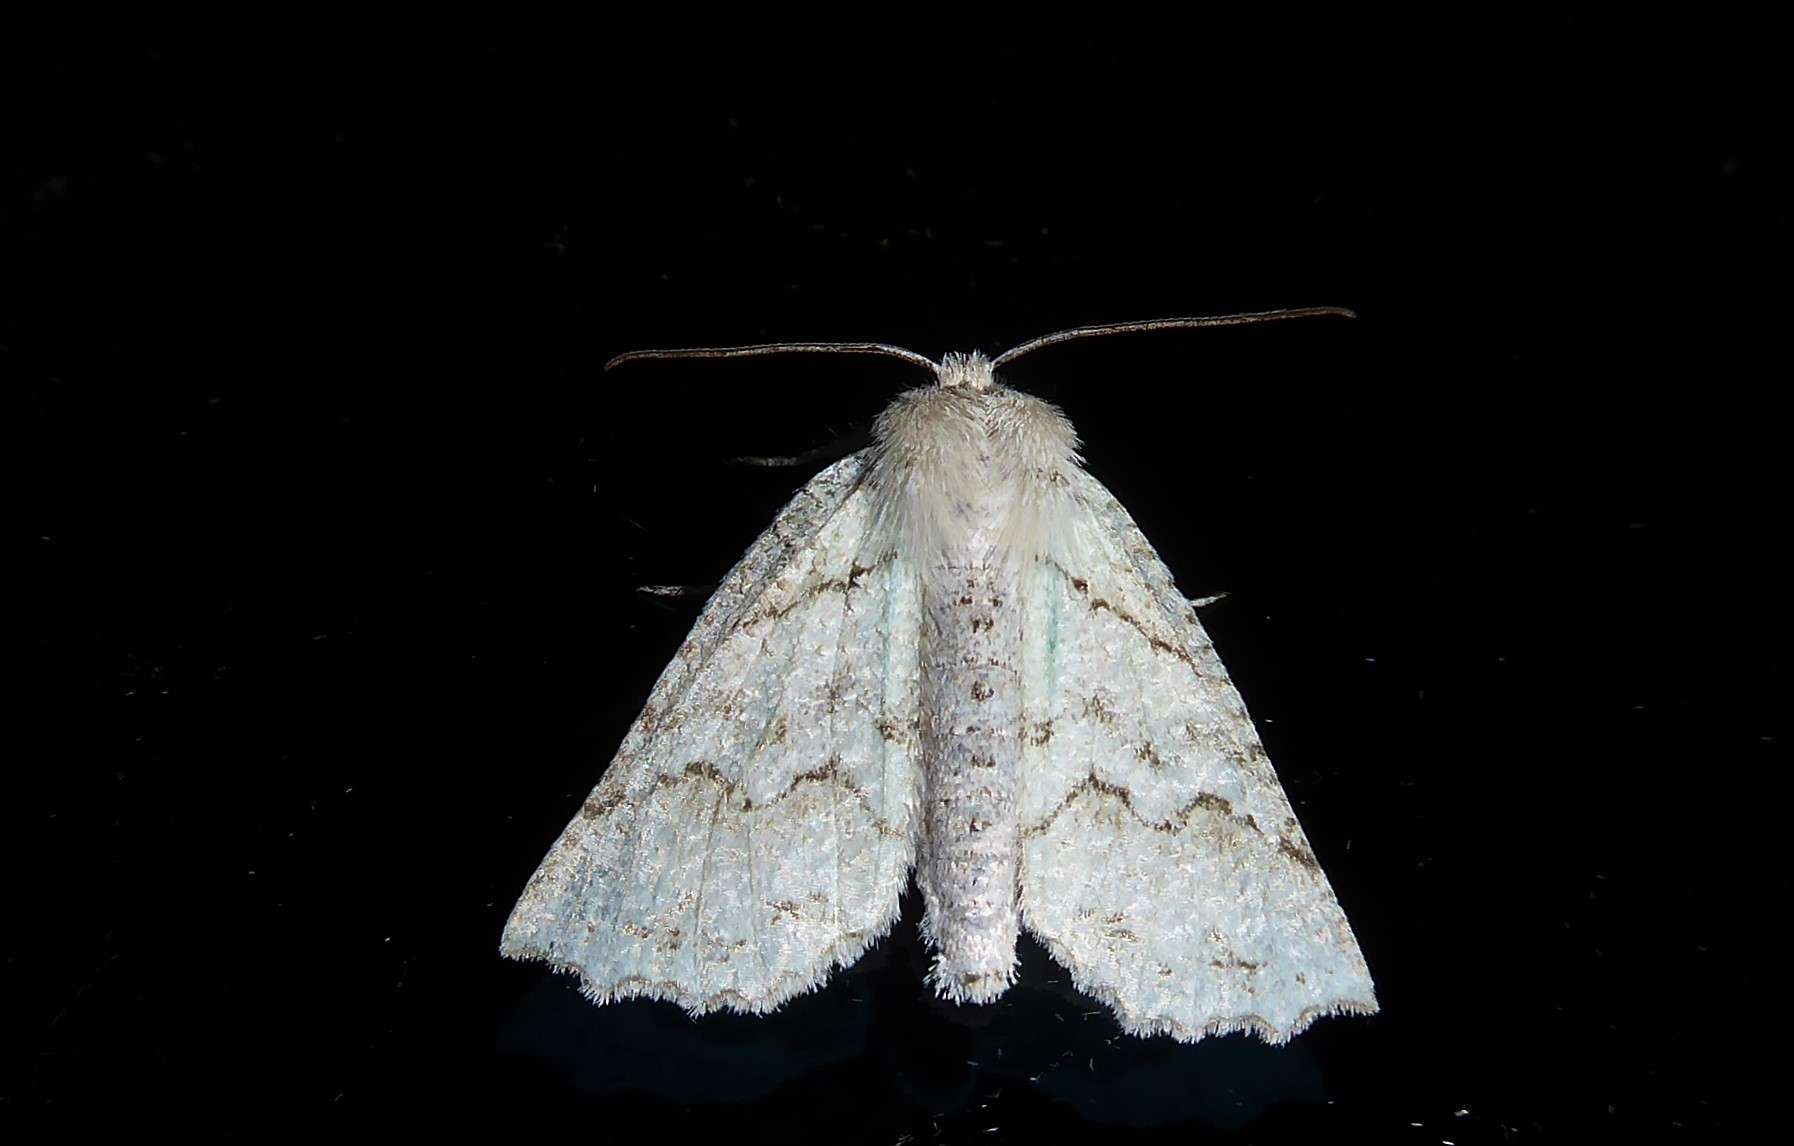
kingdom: Animalia
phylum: Arthropoda
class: Insecta
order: Lepidoptera
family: Geometridae
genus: Declana
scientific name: Declana niveata
